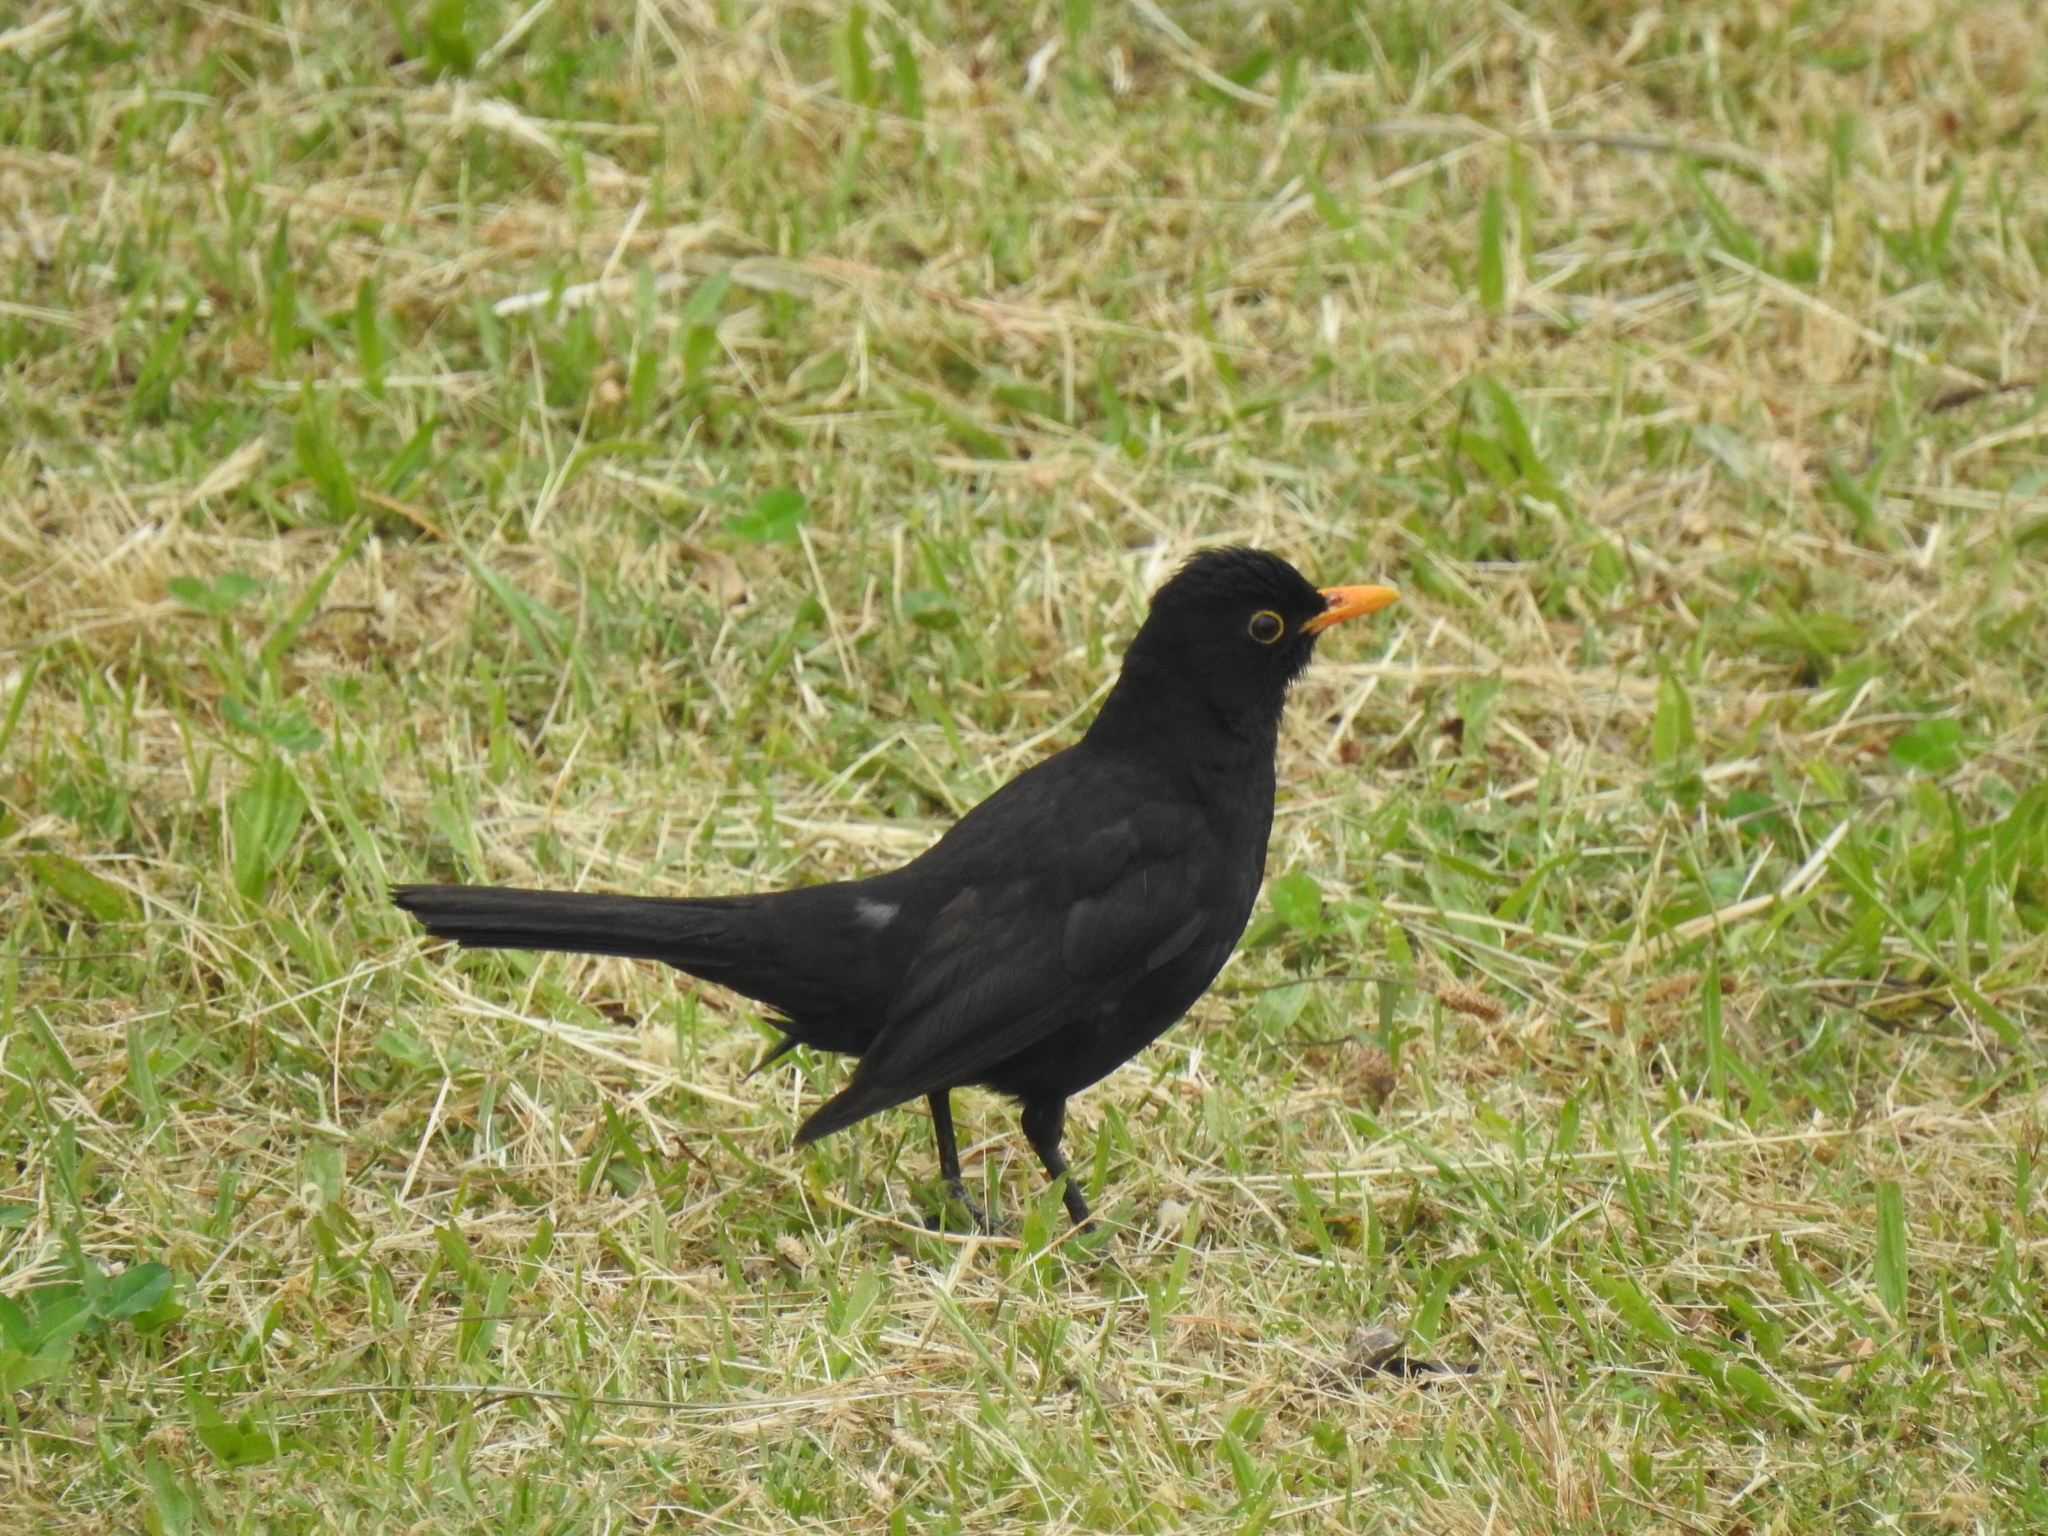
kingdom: Animalia
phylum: Chordata
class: Aves
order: Passeriformes
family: Turdidae
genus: Turdus
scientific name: Turdus merula
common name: Common blackbird
